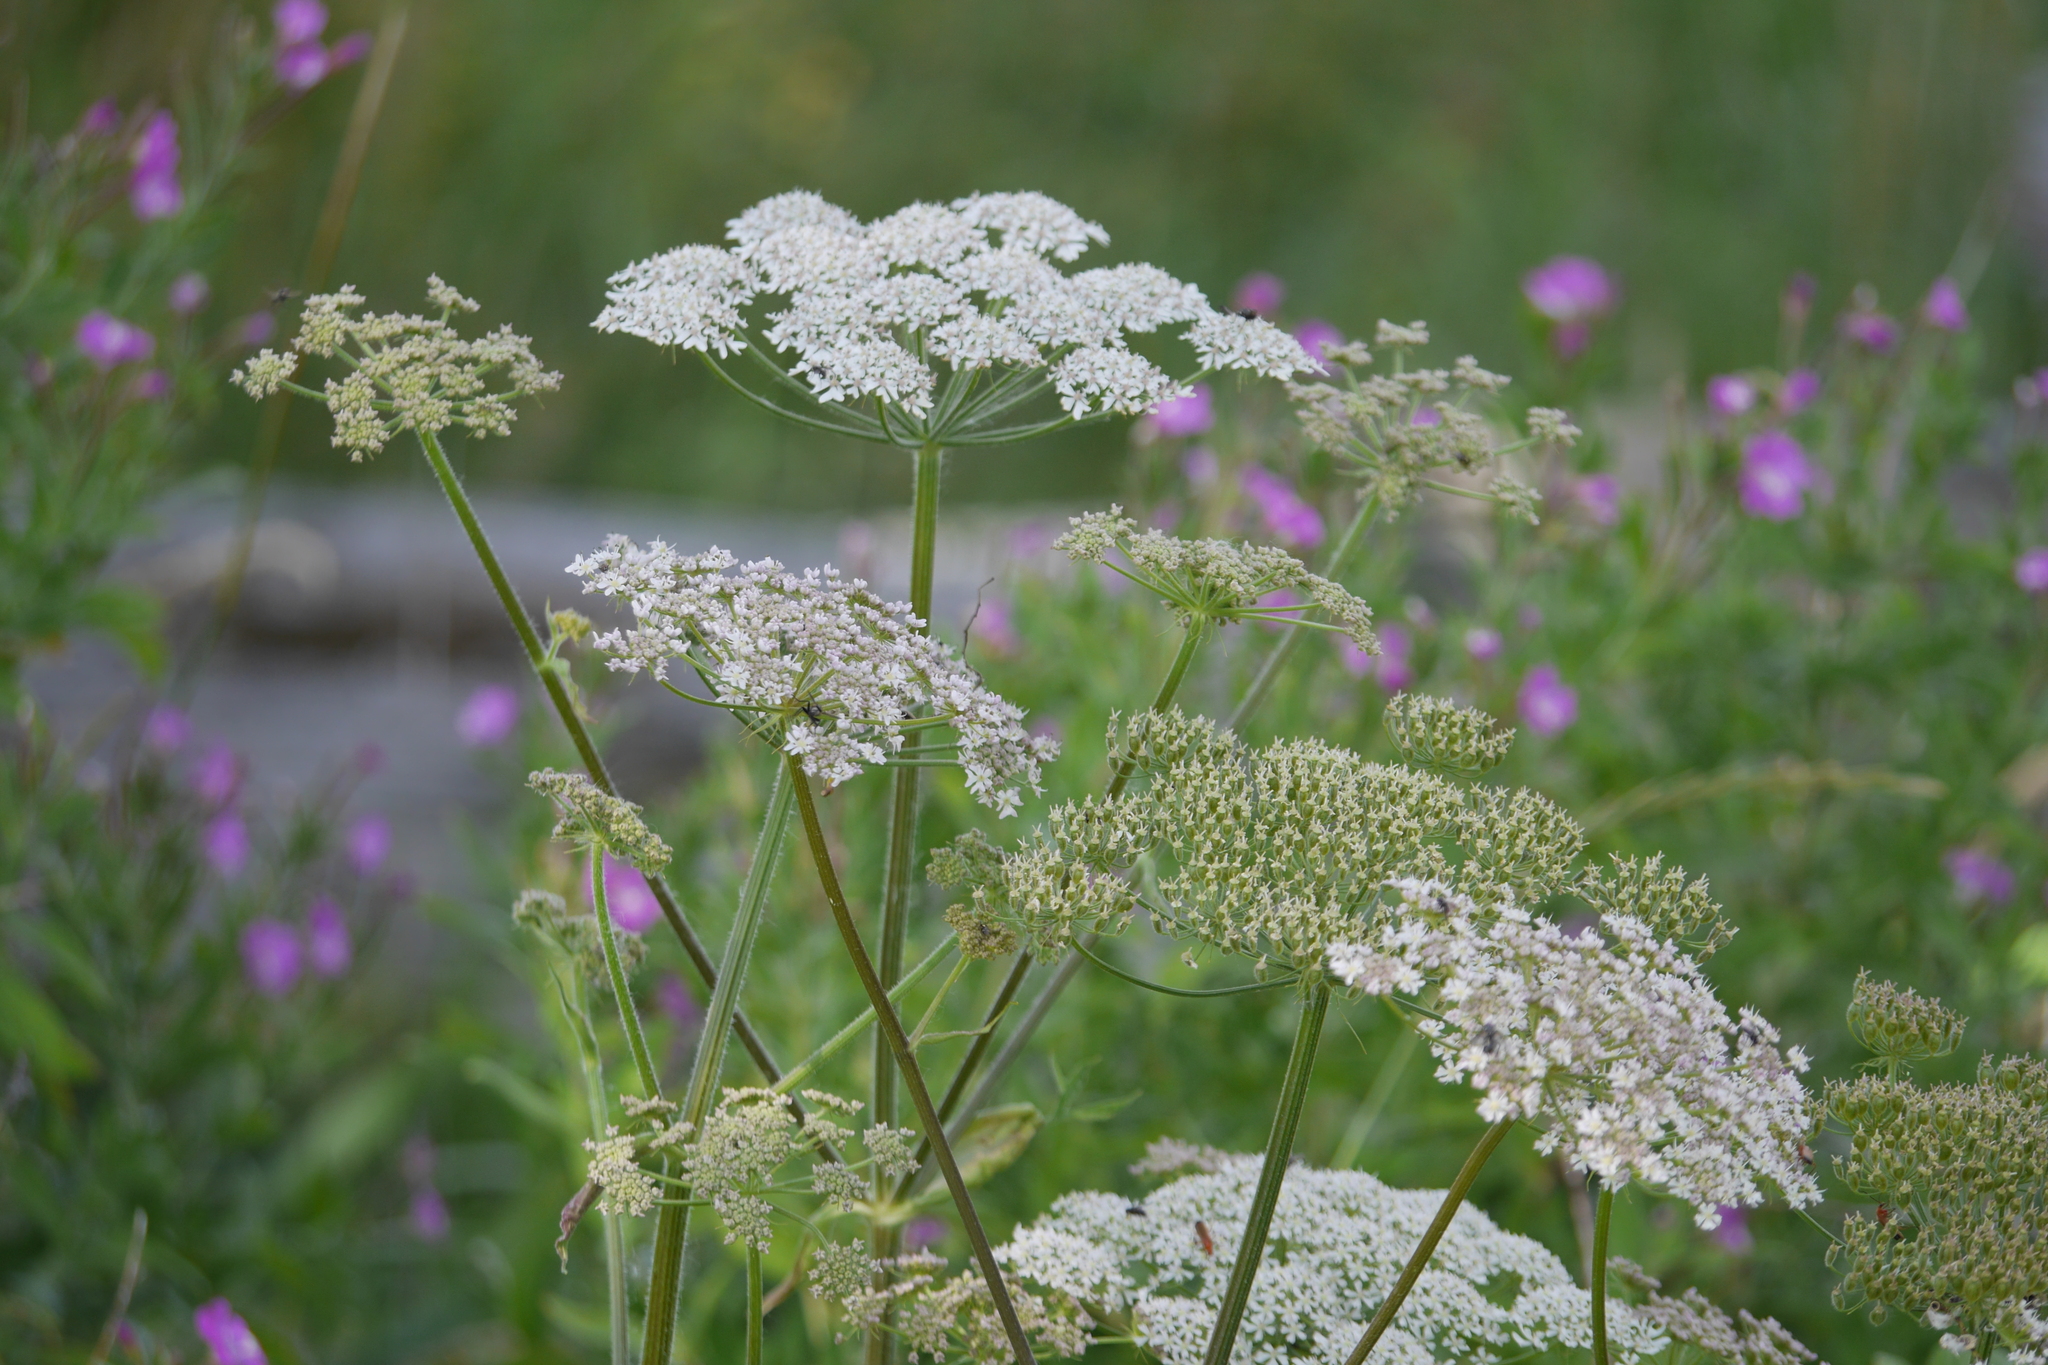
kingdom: Plantae
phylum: Tracheophyta
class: Magnoliopsida
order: Apiales
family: Apiaceae
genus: Heracleum
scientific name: Heracleum sphondylium
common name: Hogweed
